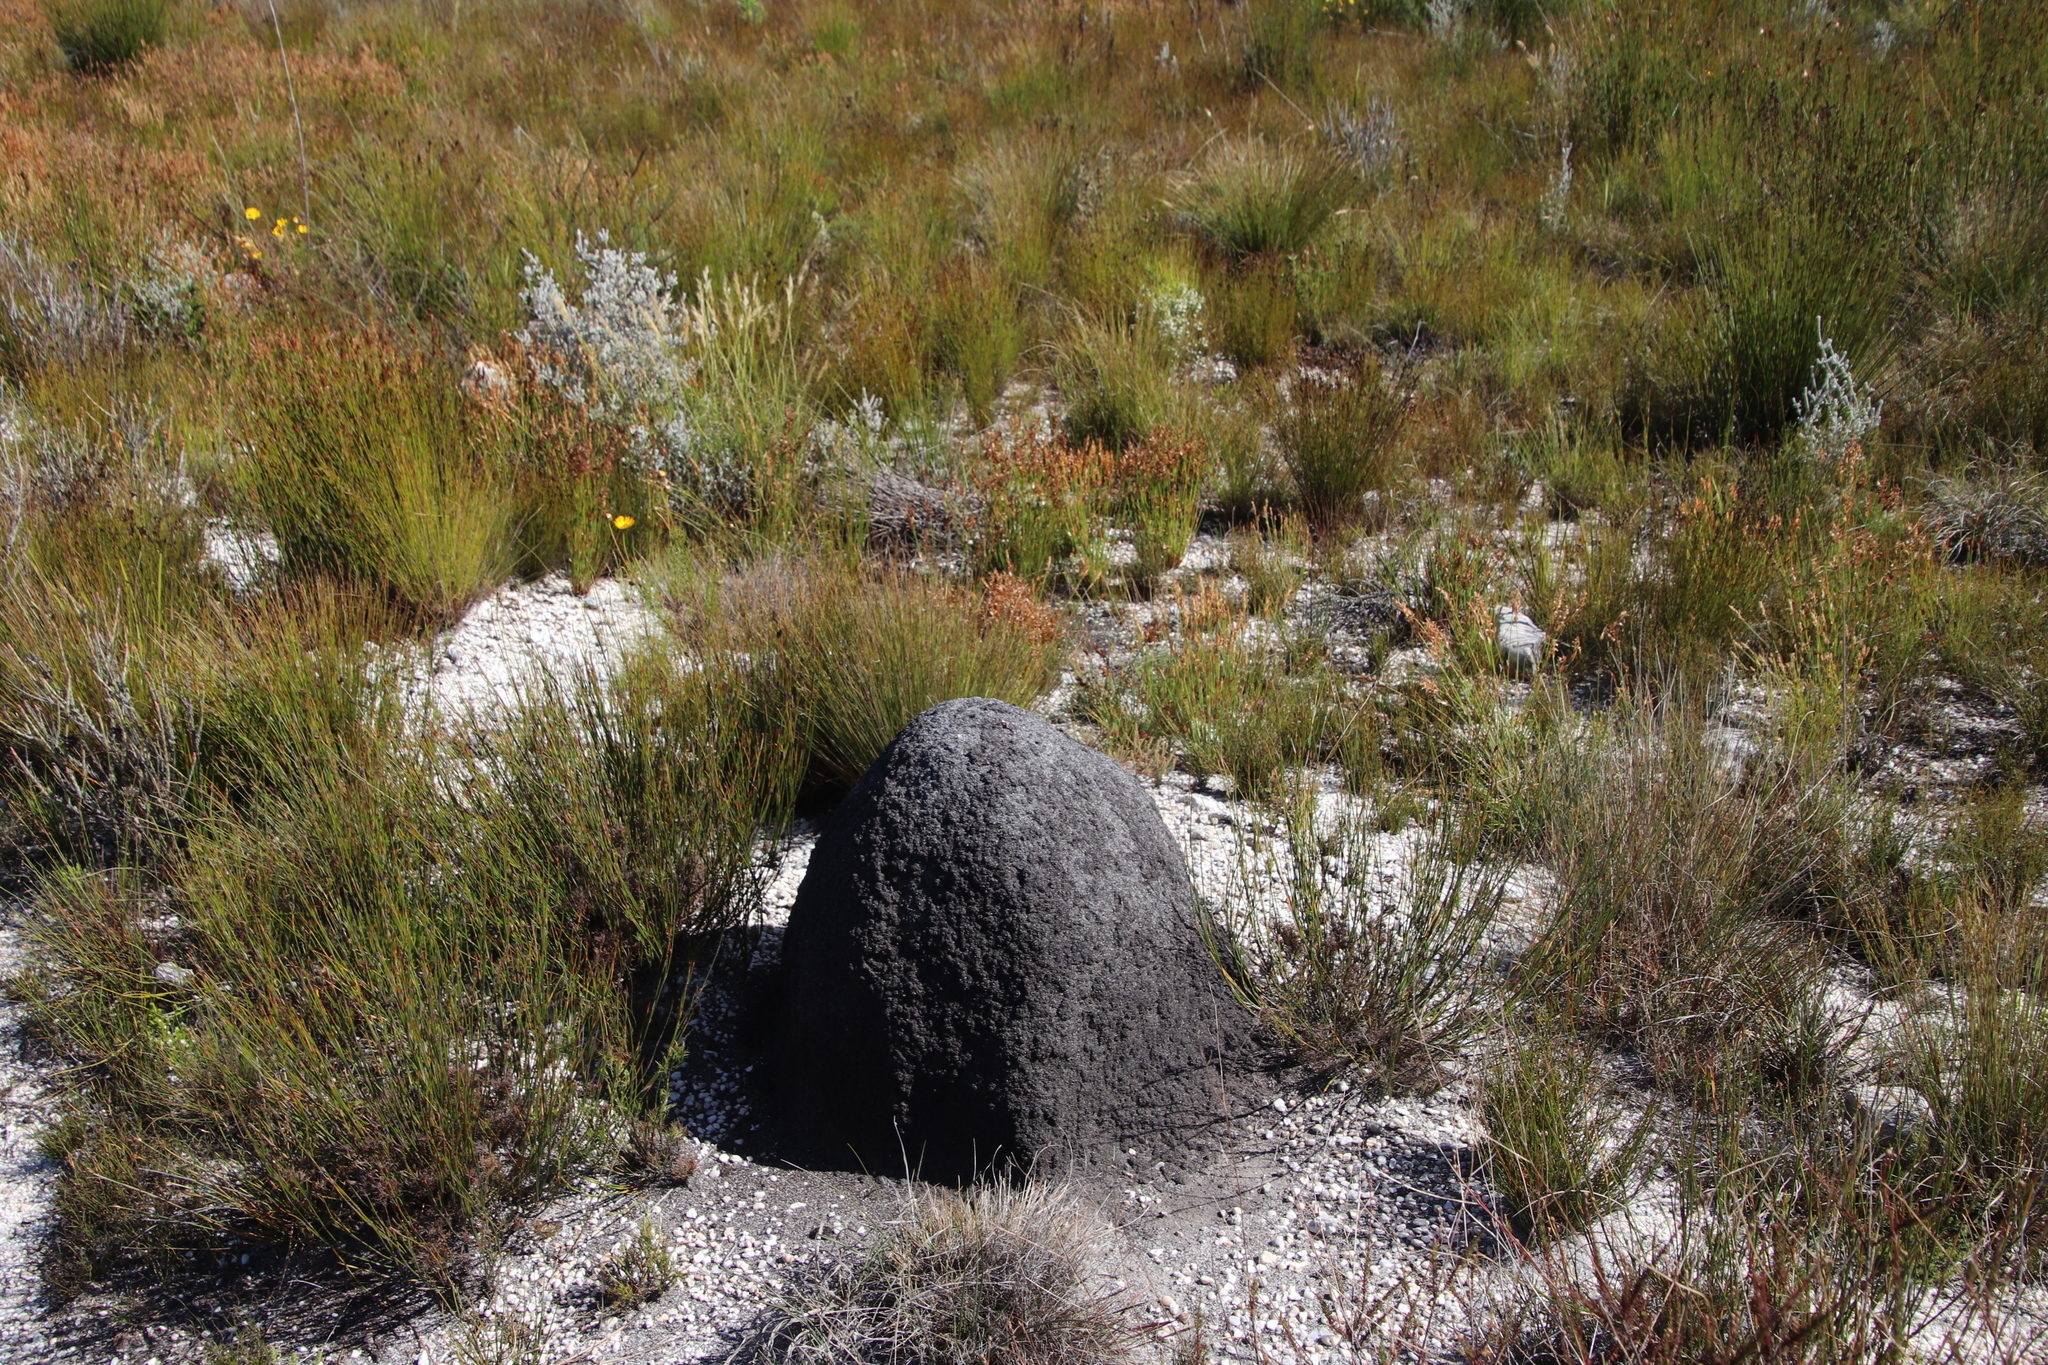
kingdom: Animalia
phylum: Arthropoda
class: Insecta
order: Blattodea
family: Termitidae
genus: Amitermes
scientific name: Amitermes hastatus
